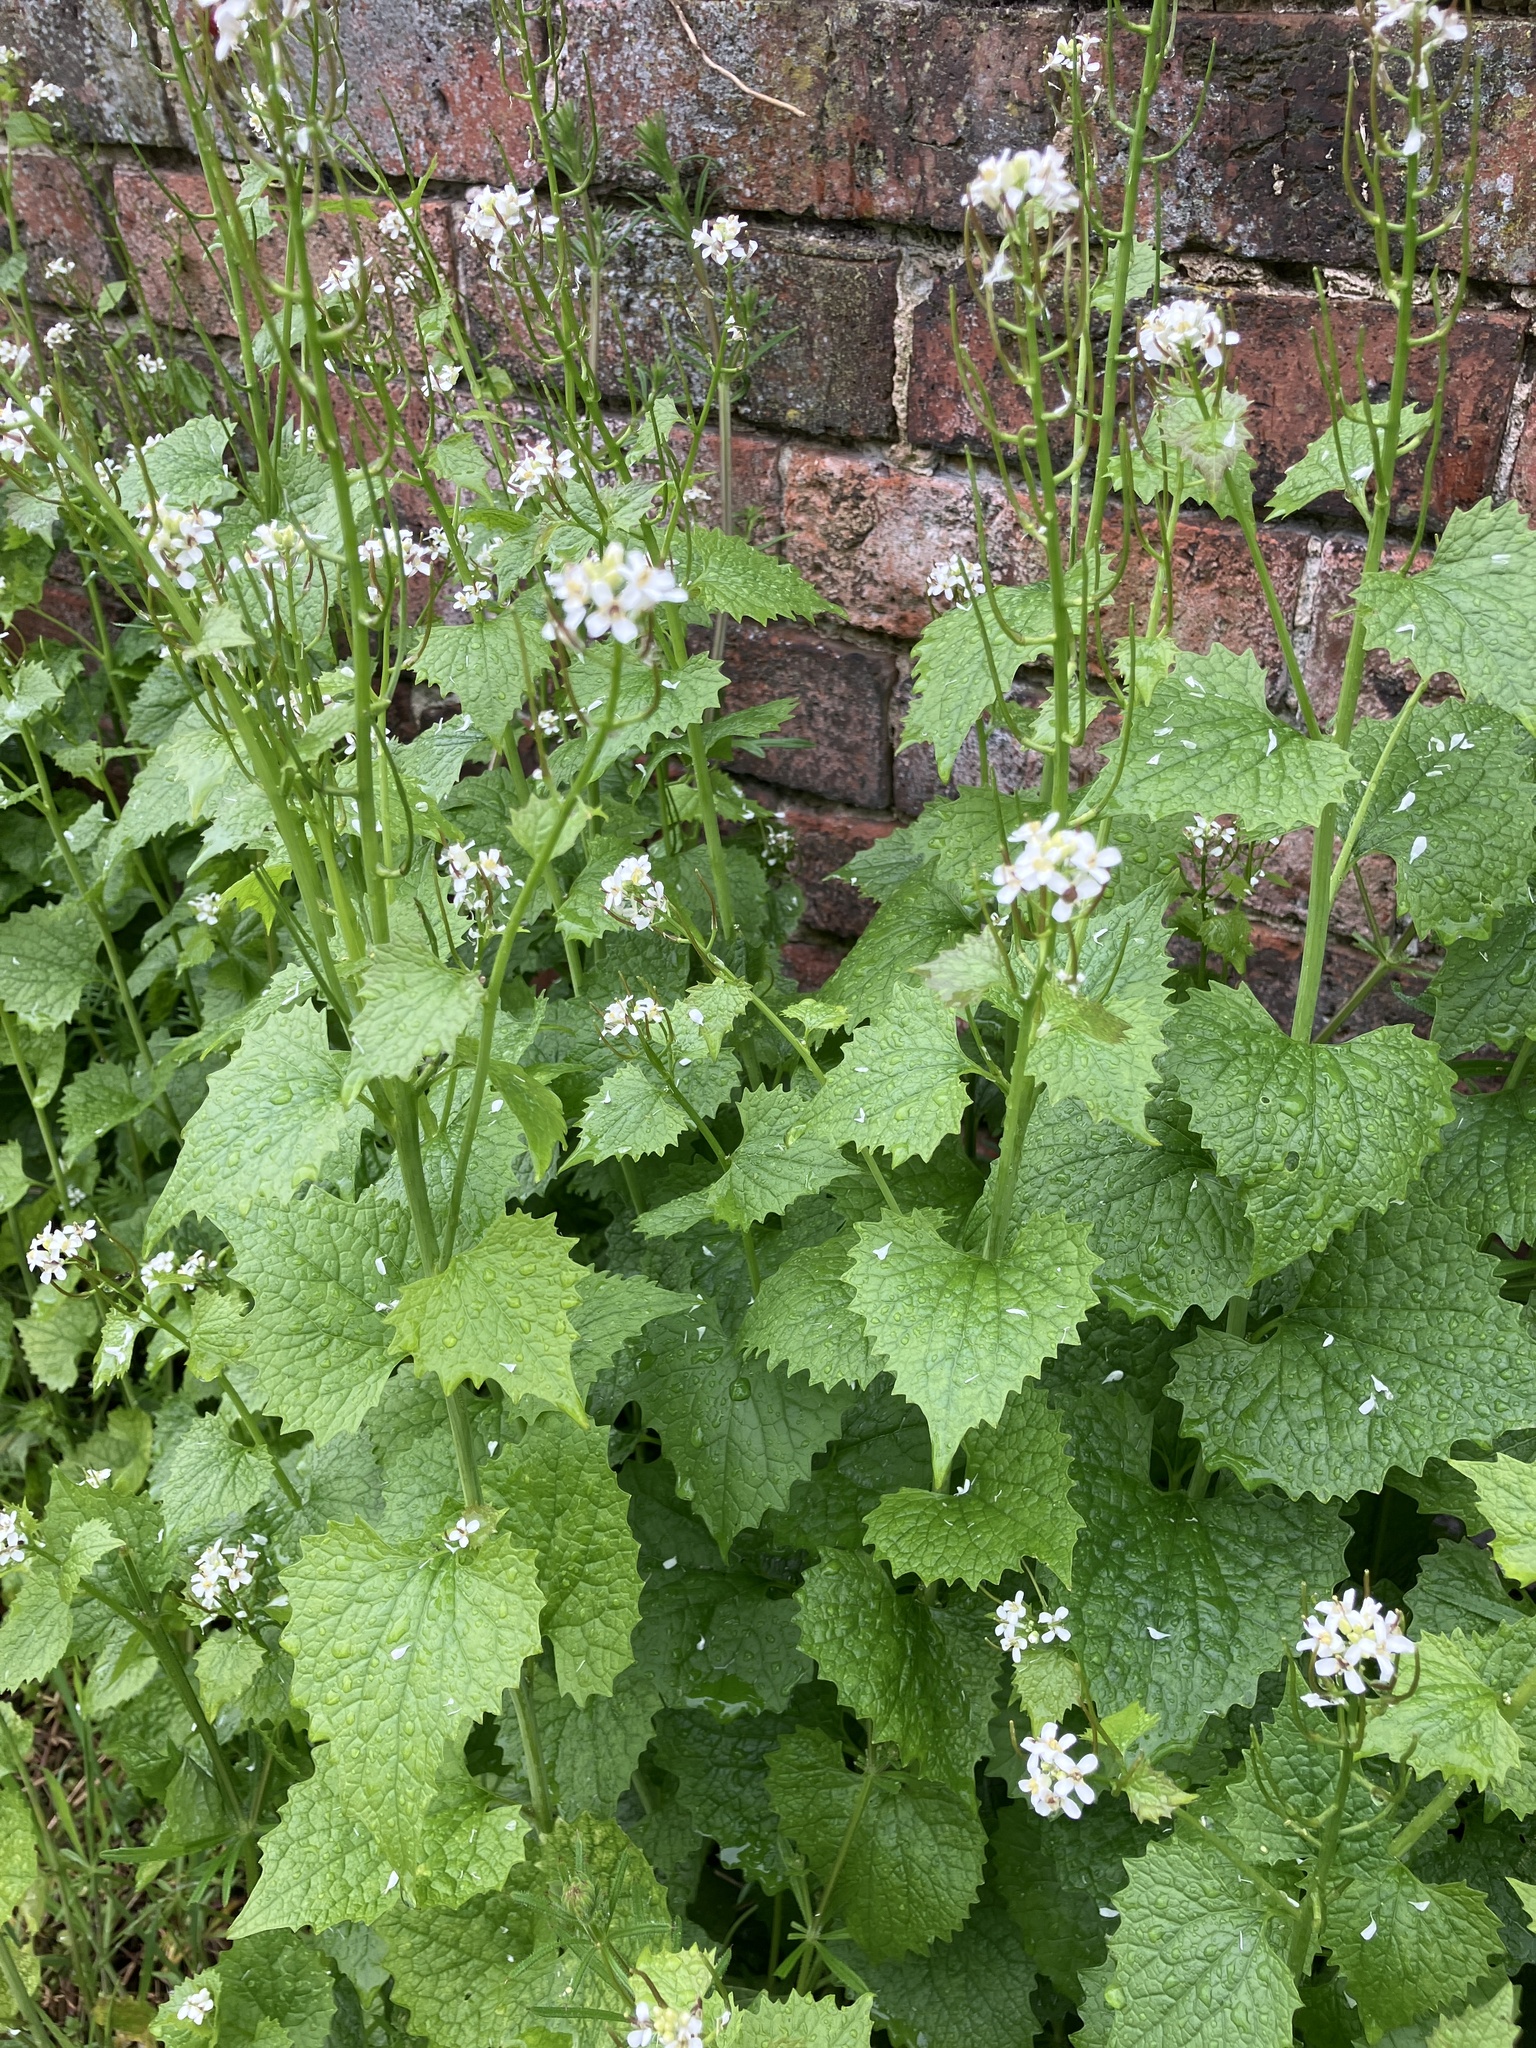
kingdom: Plantae
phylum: Tracheophyta
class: Magnoliopsida
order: Brassicales
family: Brassicaceae
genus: Alliaria
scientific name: Alliaria petiolata
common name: Garlic mustard
